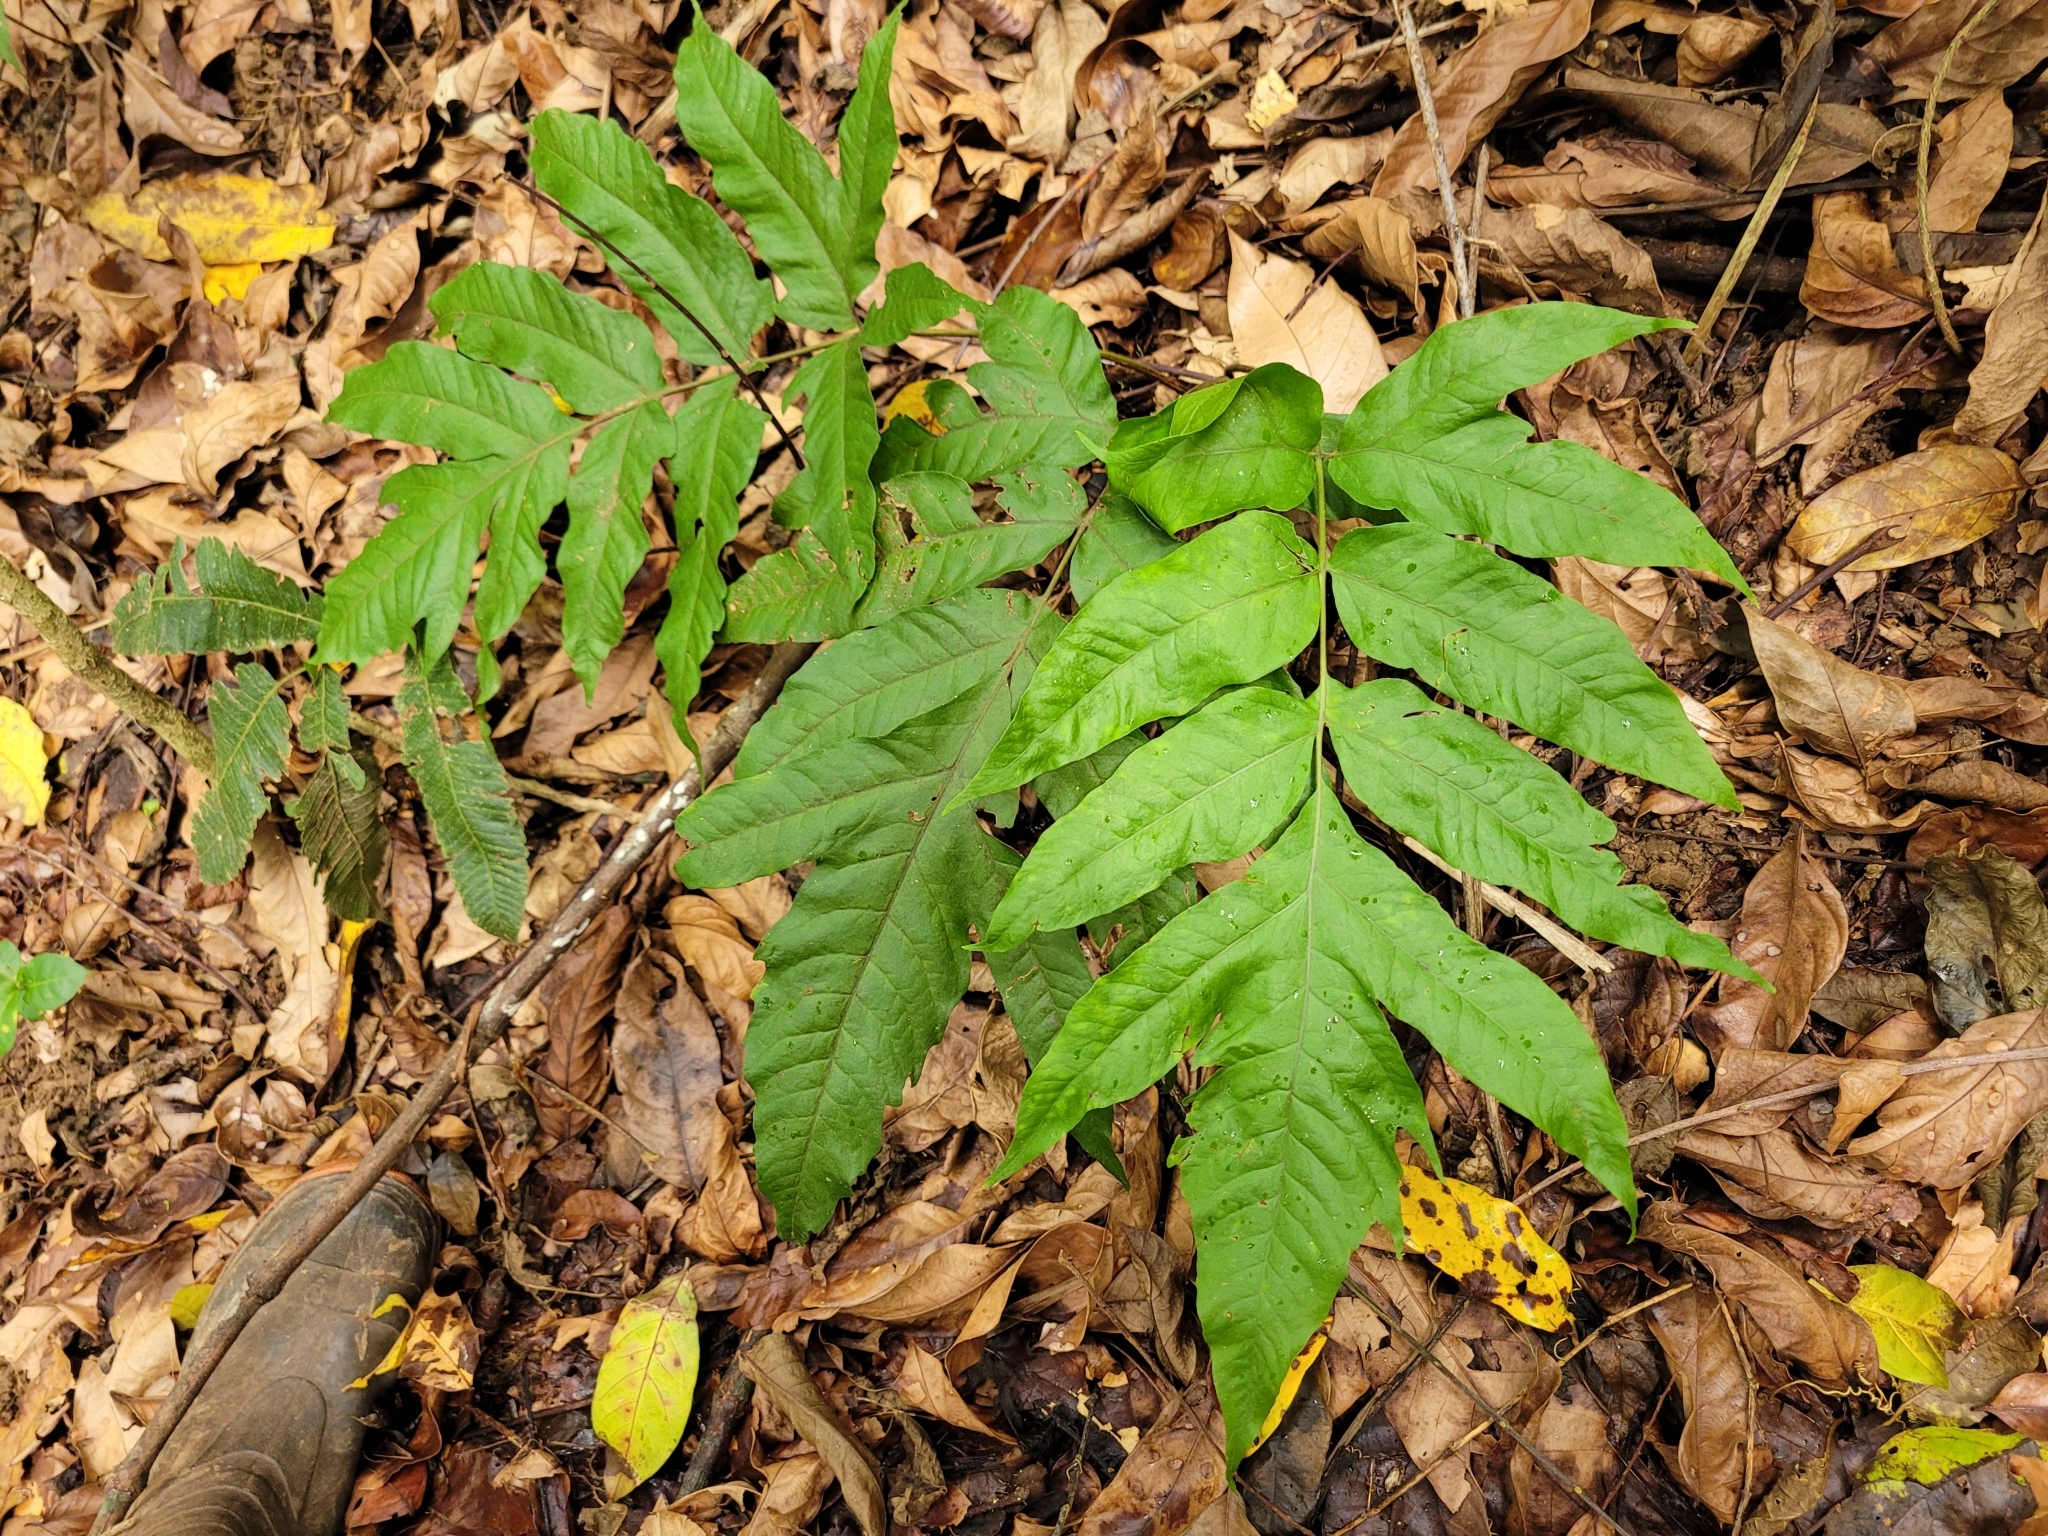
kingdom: Plantae
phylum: Tracheophyta
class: Polypodiopsida
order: Polypodiales
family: Tectariaceae
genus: Tectaria
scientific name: Tectaria incisa
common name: Incised halberd fern
